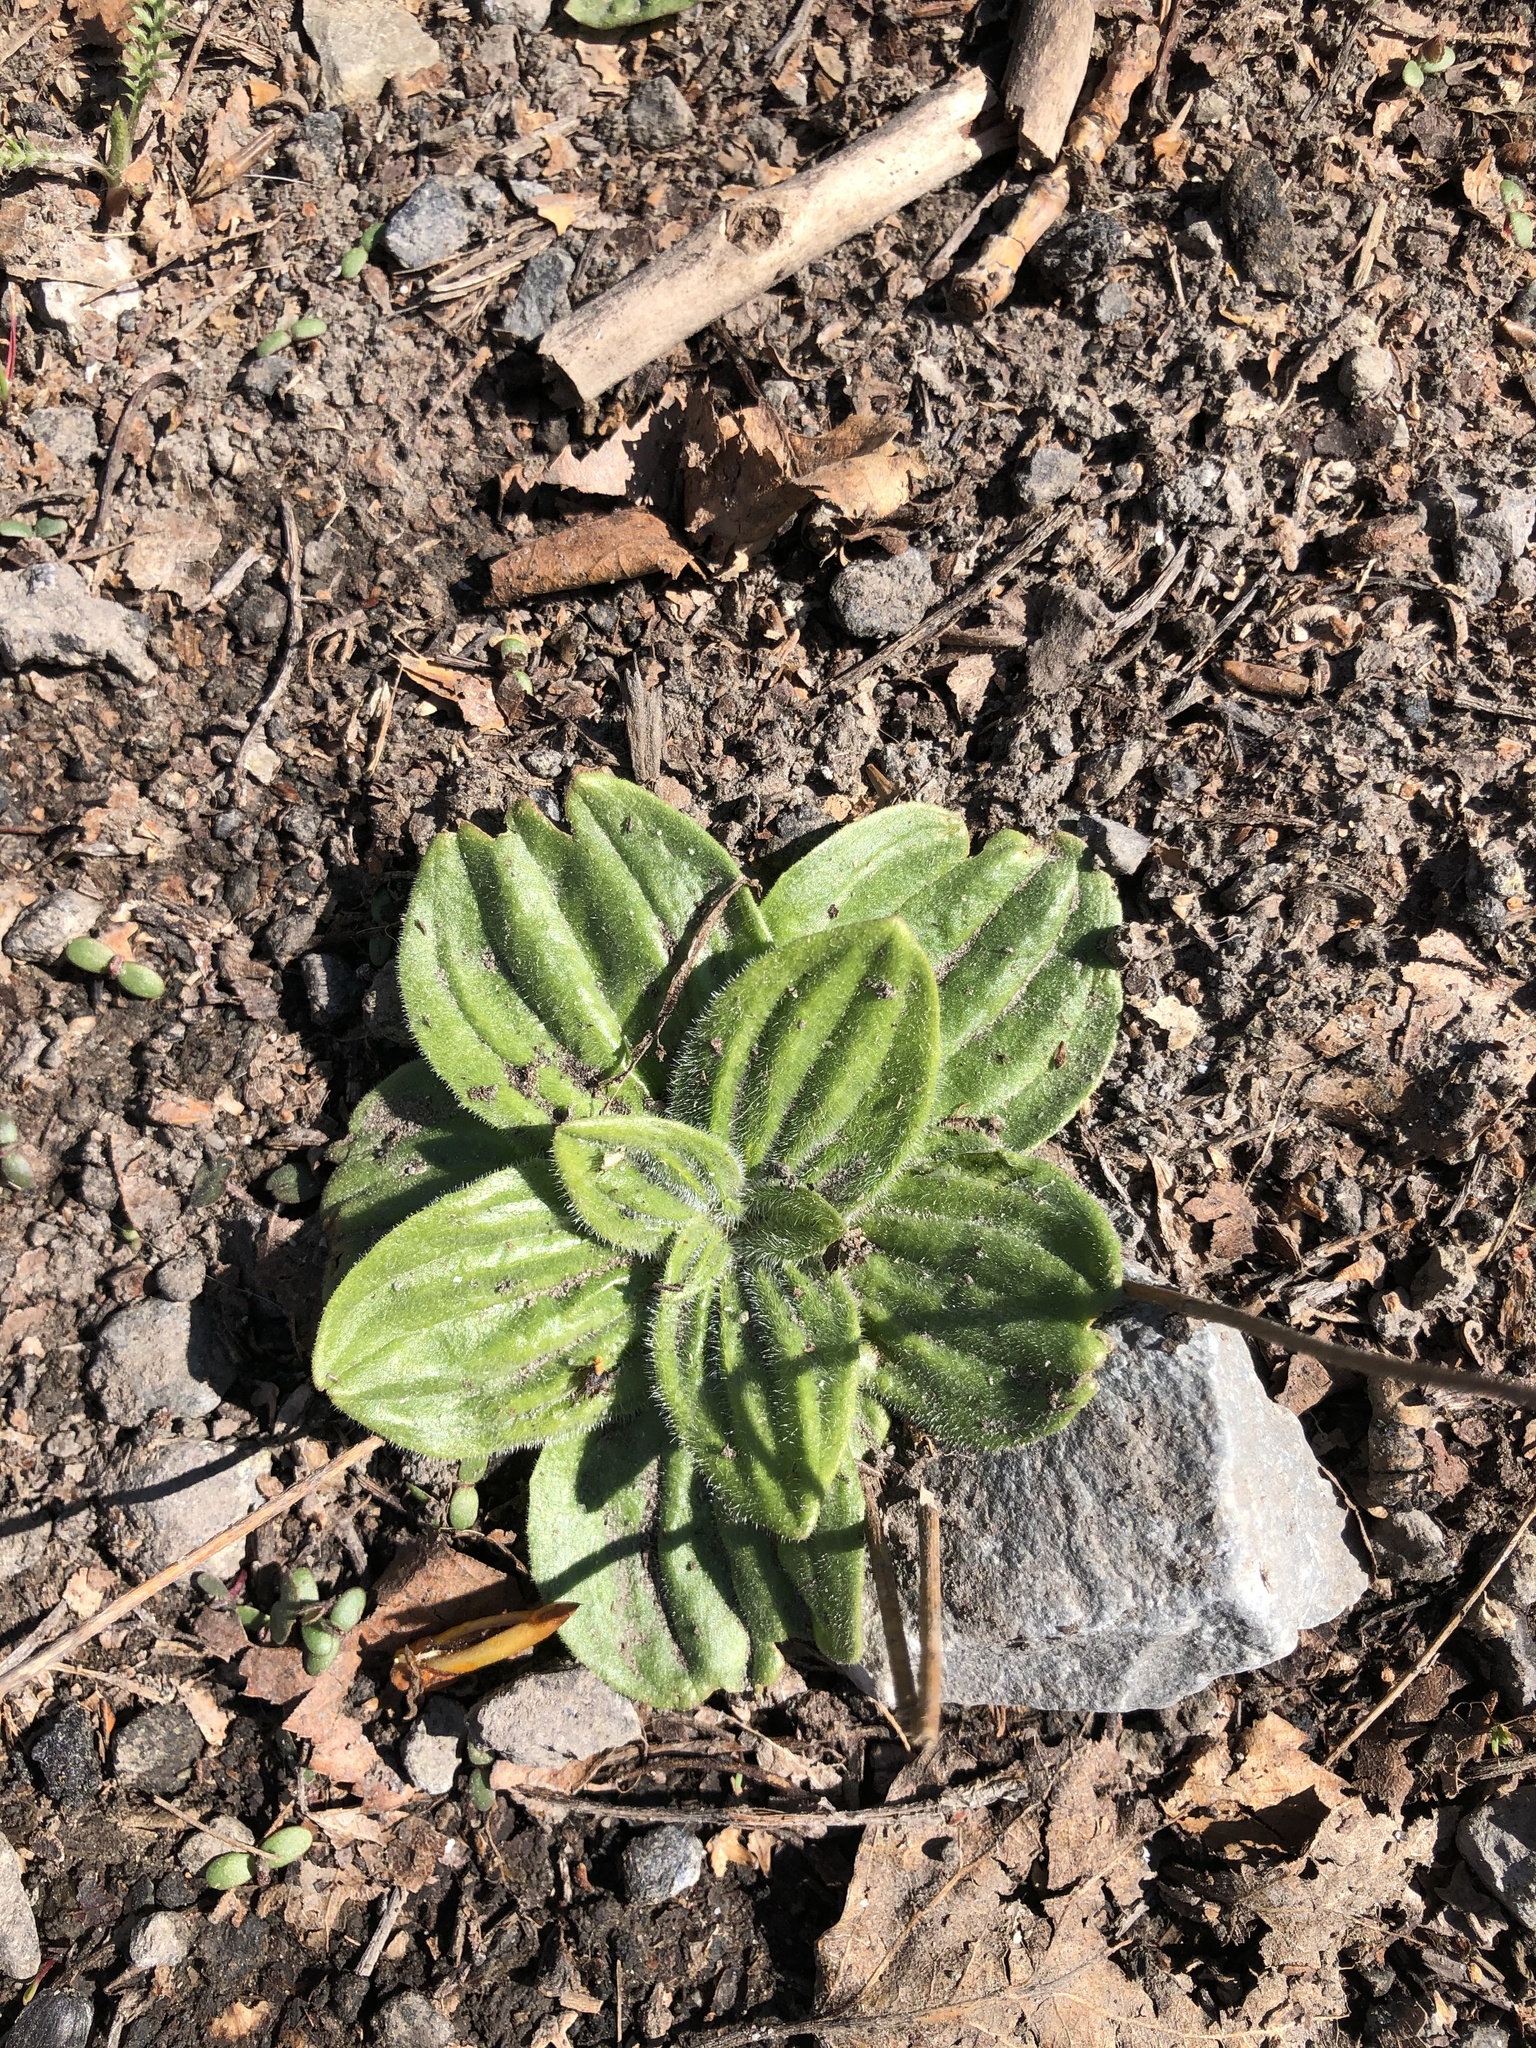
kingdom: Plantae
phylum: Tracheophyta
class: Magnoliopsida
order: Lamiales
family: Plantaginaceae
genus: Plantago
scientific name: Plantago media
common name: Hoary plantain
